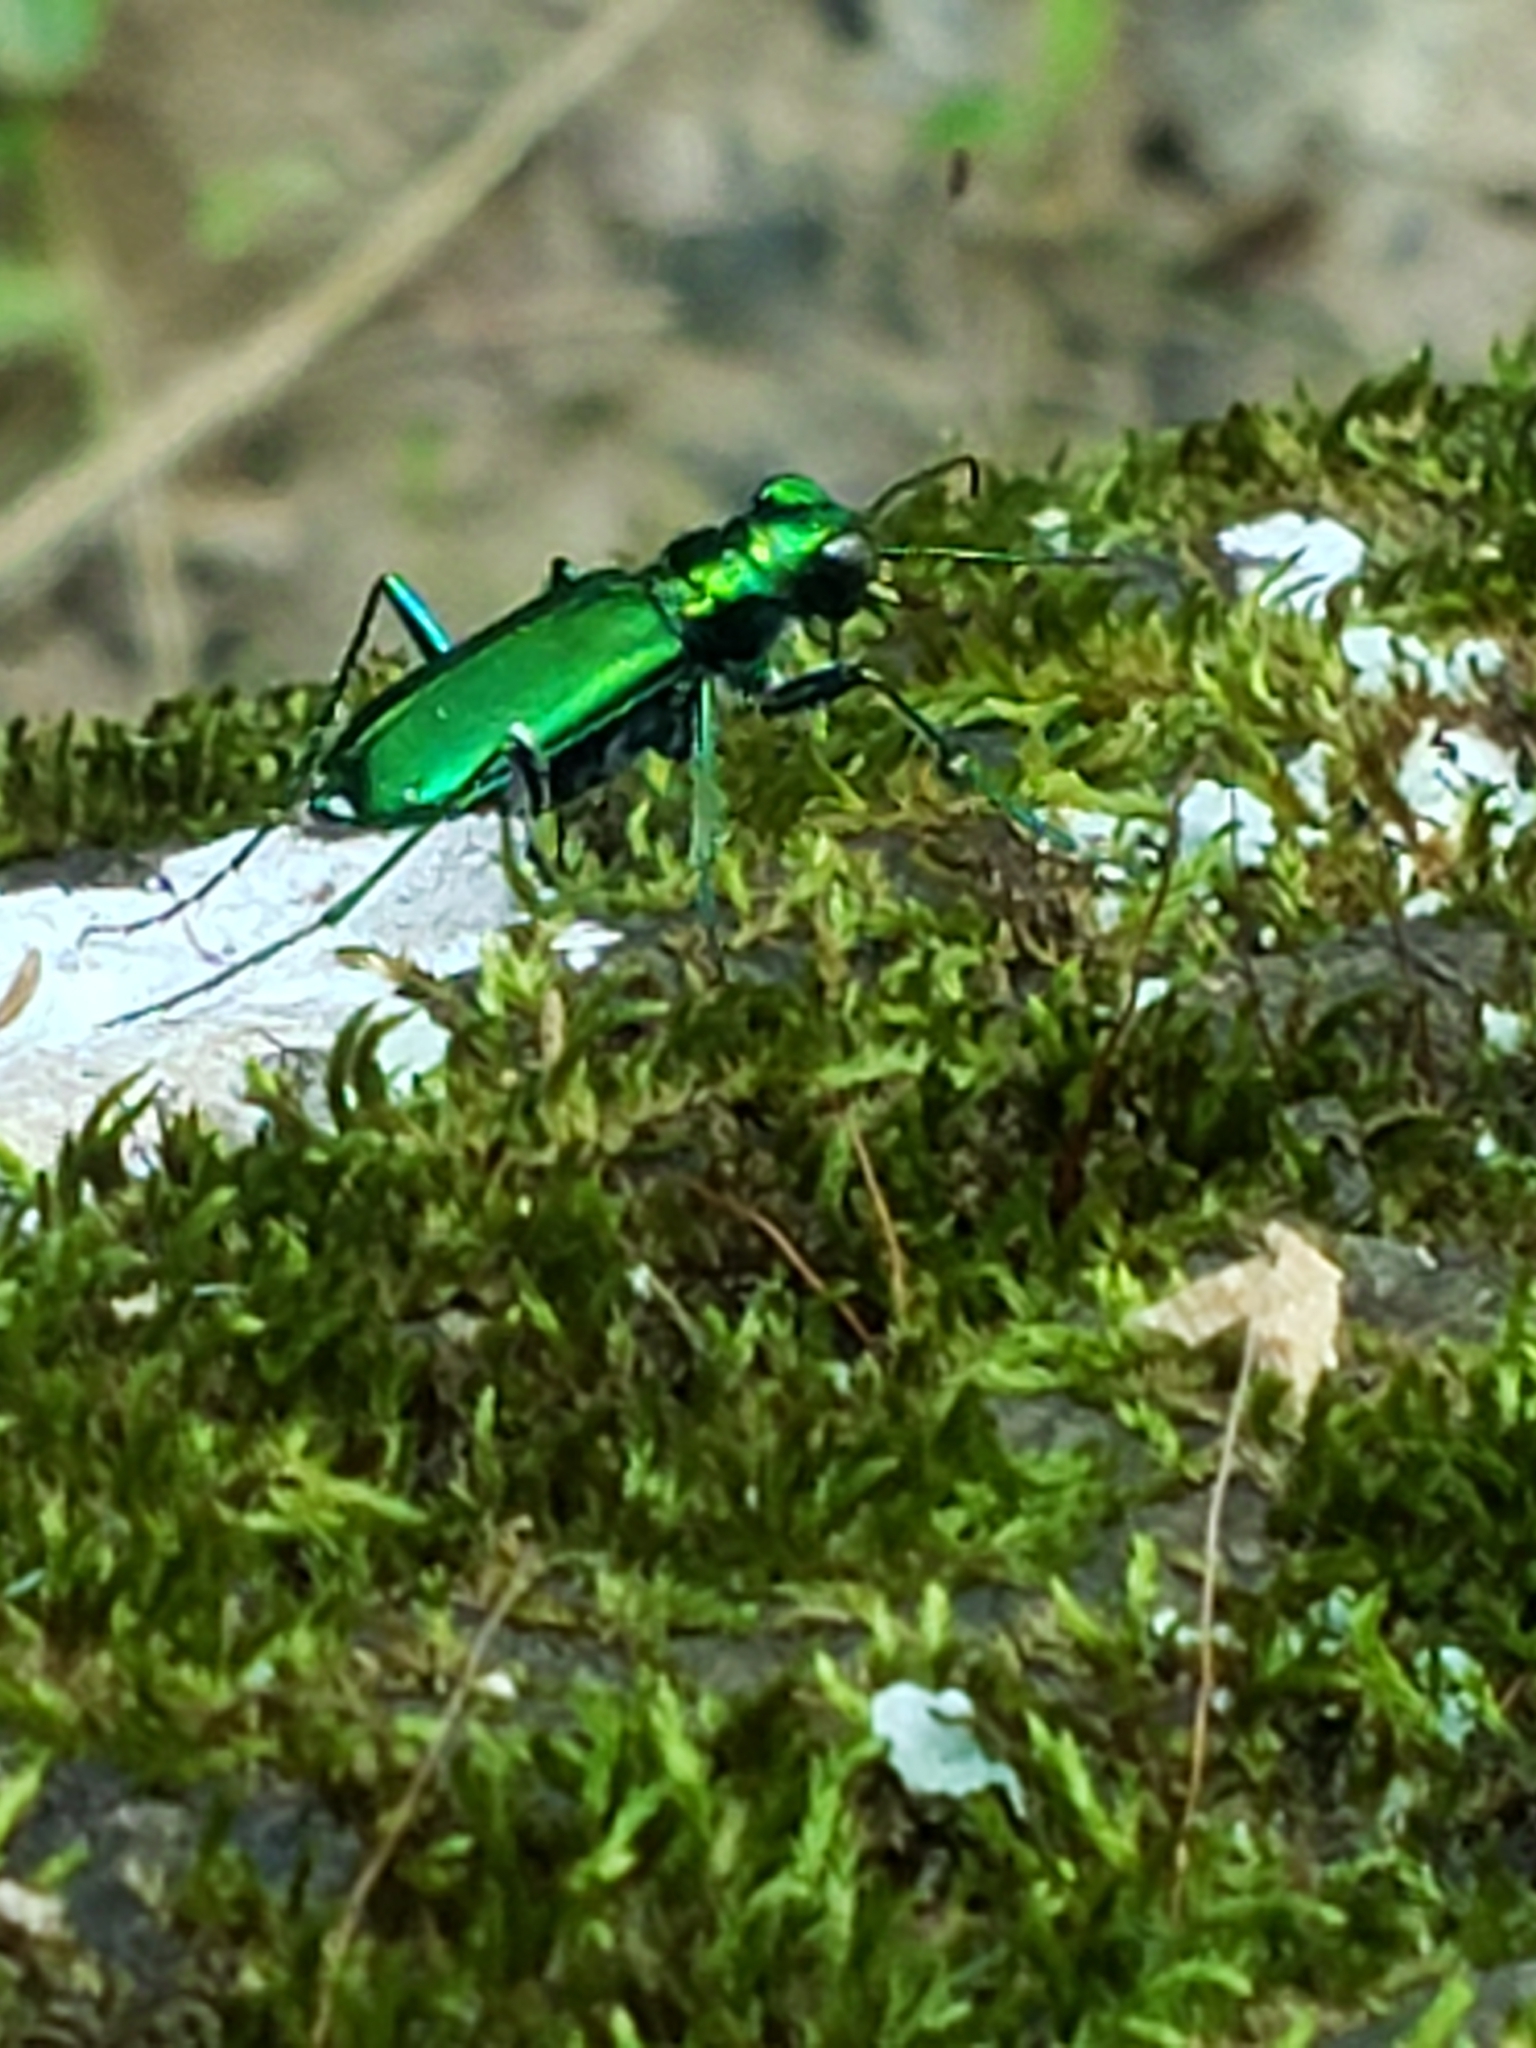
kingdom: Animalia
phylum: Arthropoda
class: Insecta
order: Coleoptera
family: Carabidae
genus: Cicindela
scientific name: Cicindela sexguttata
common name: Six-spotted tiger beetle
